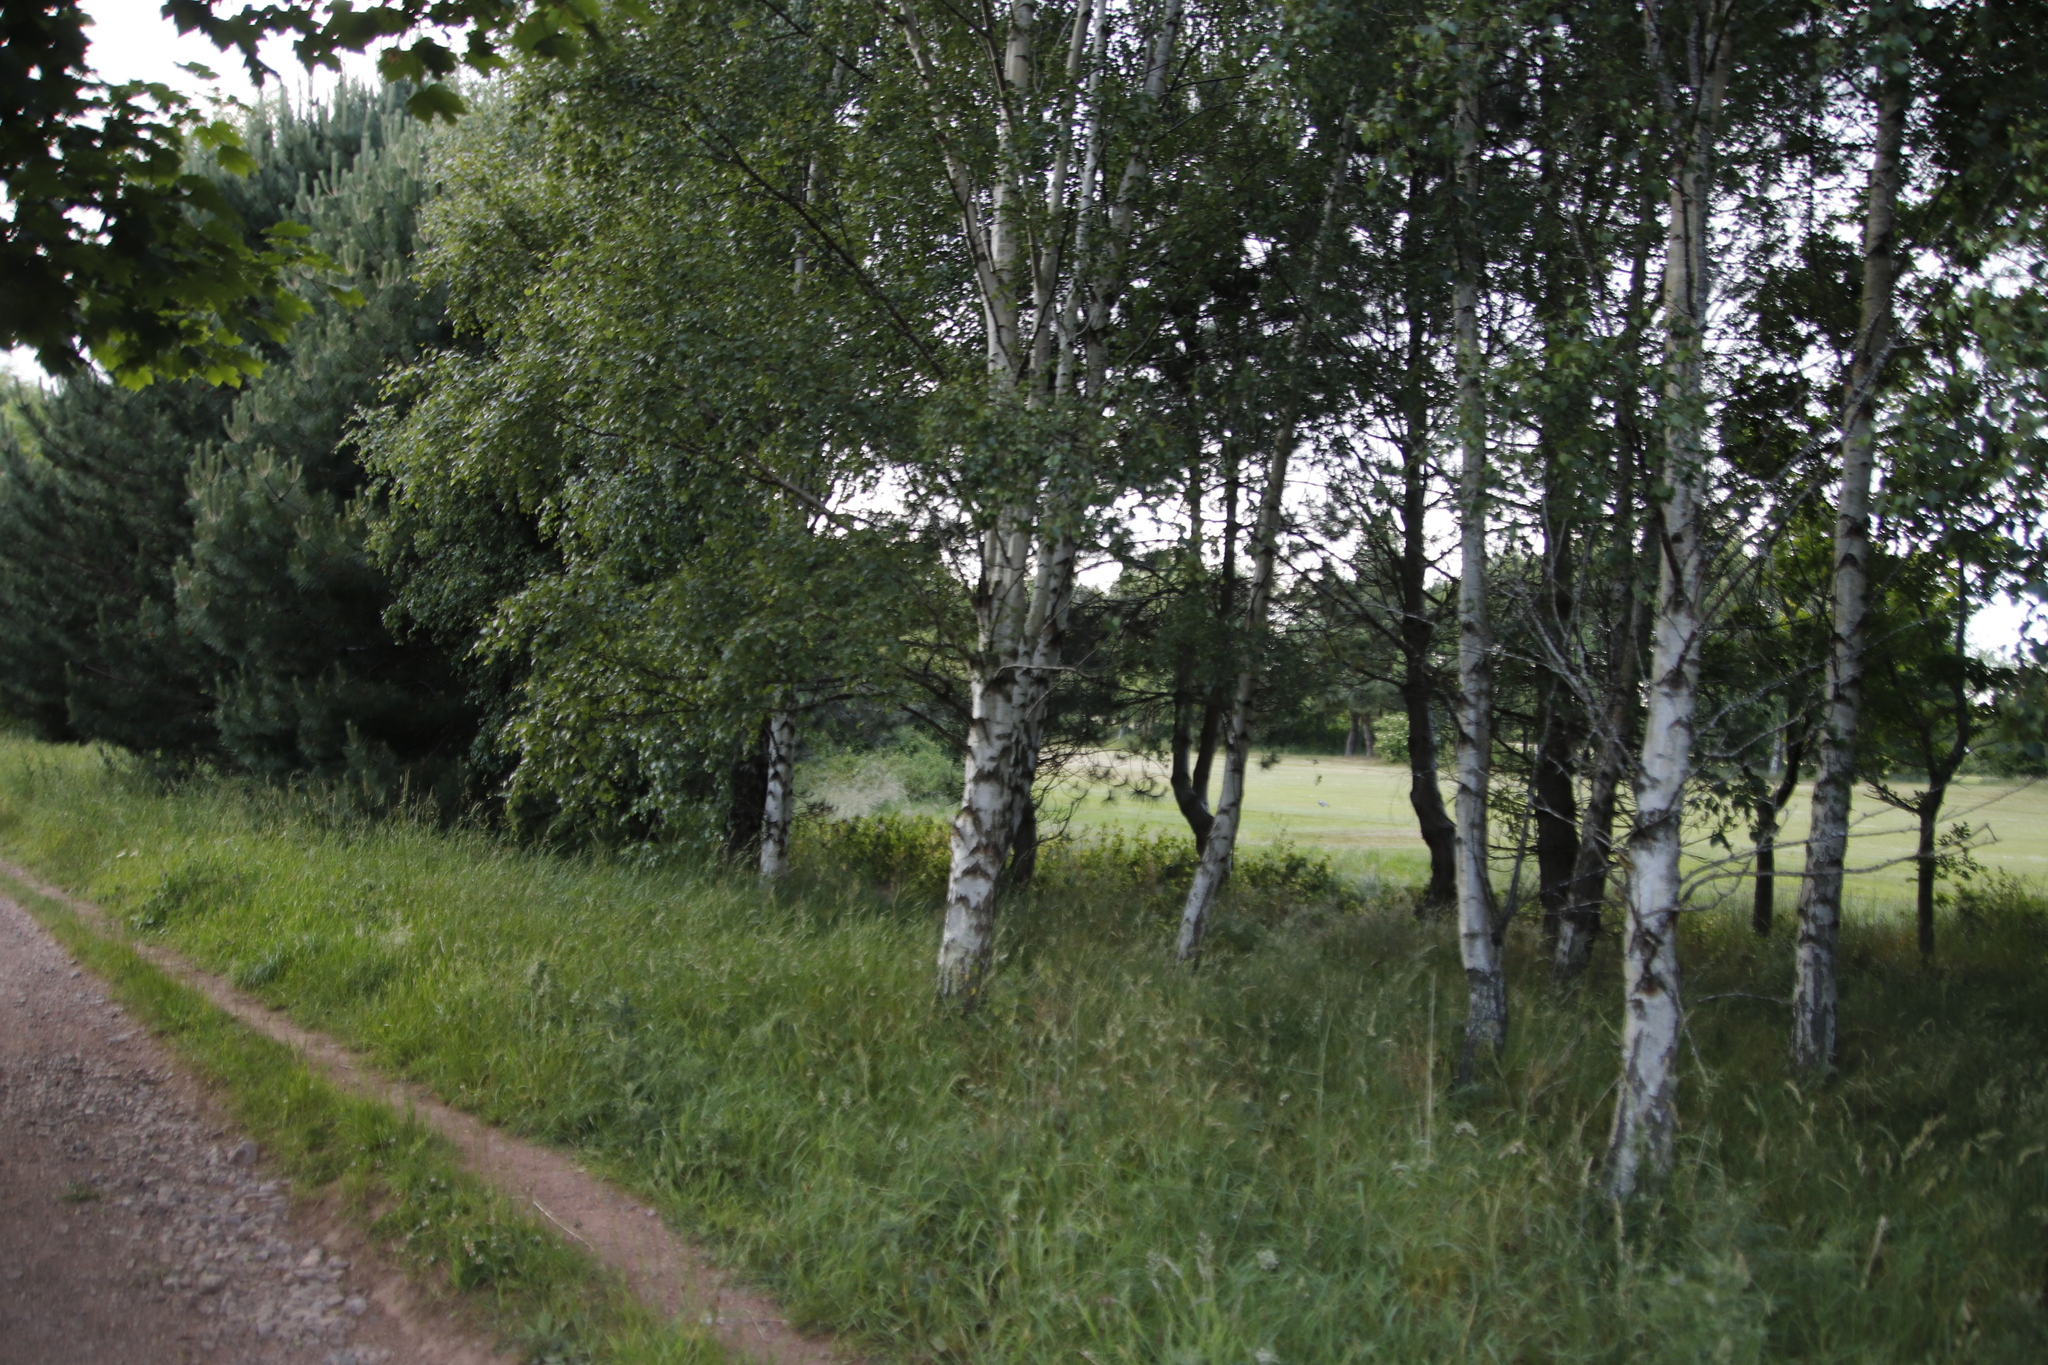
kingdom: Plantae
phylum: Tracheophyta
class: Magnoliopsida
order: Fagales
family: Betulaceae
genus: Betula
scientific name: Betula pendula
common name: Silver birch
